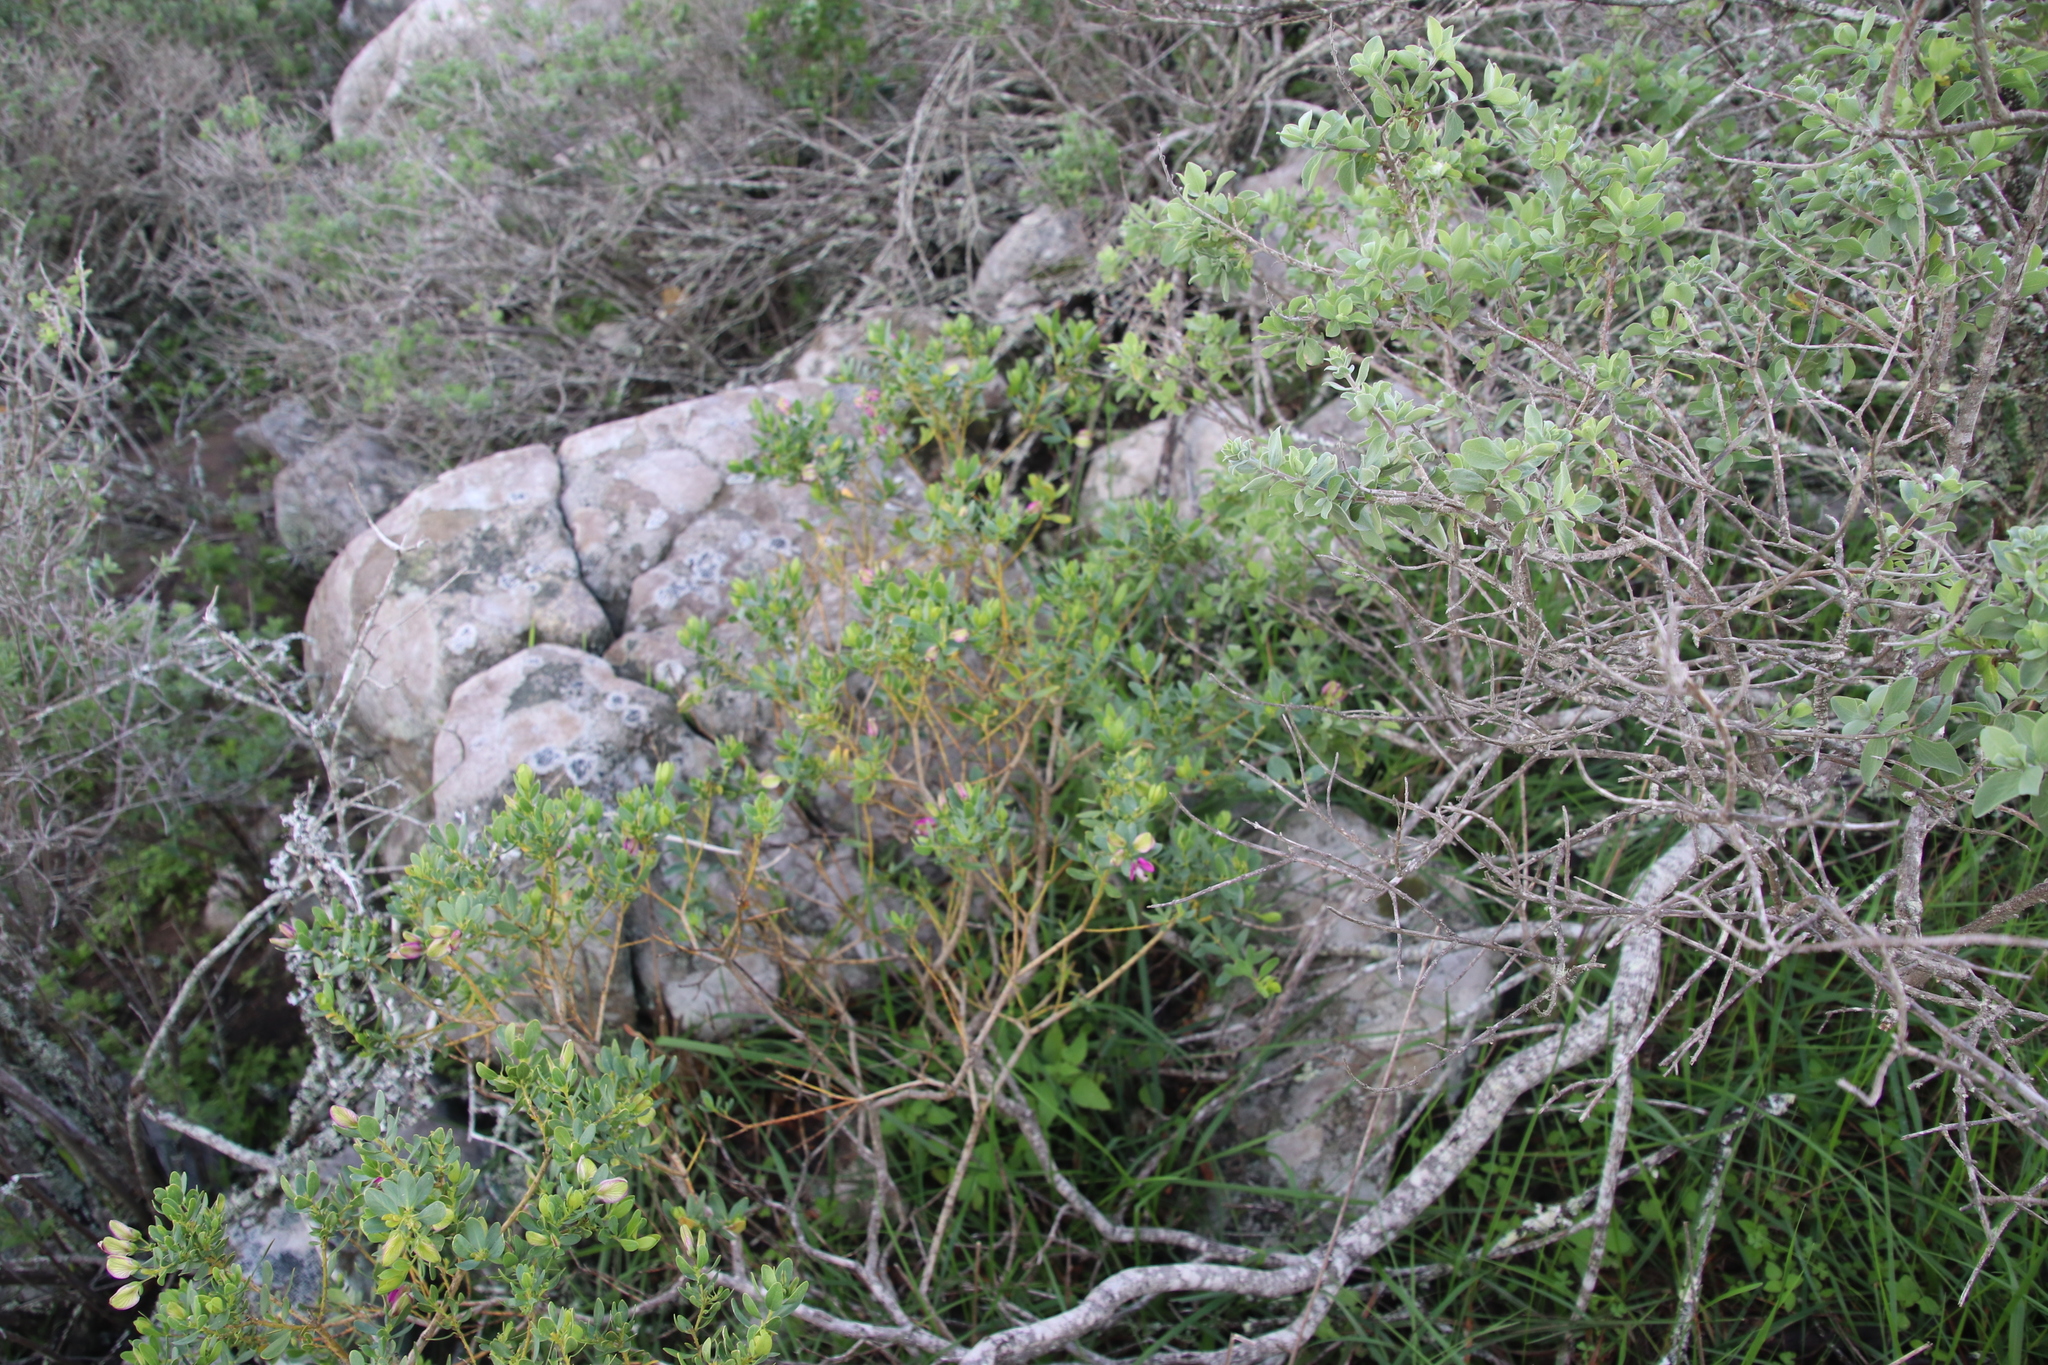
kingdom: Plantae
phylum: Tracheophyta
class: Magnoliopsida
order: Fabales
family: Polygalaceae
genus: Polygala
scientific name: Polygala myrtifolia
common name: Myrtle-leaf milkwort
